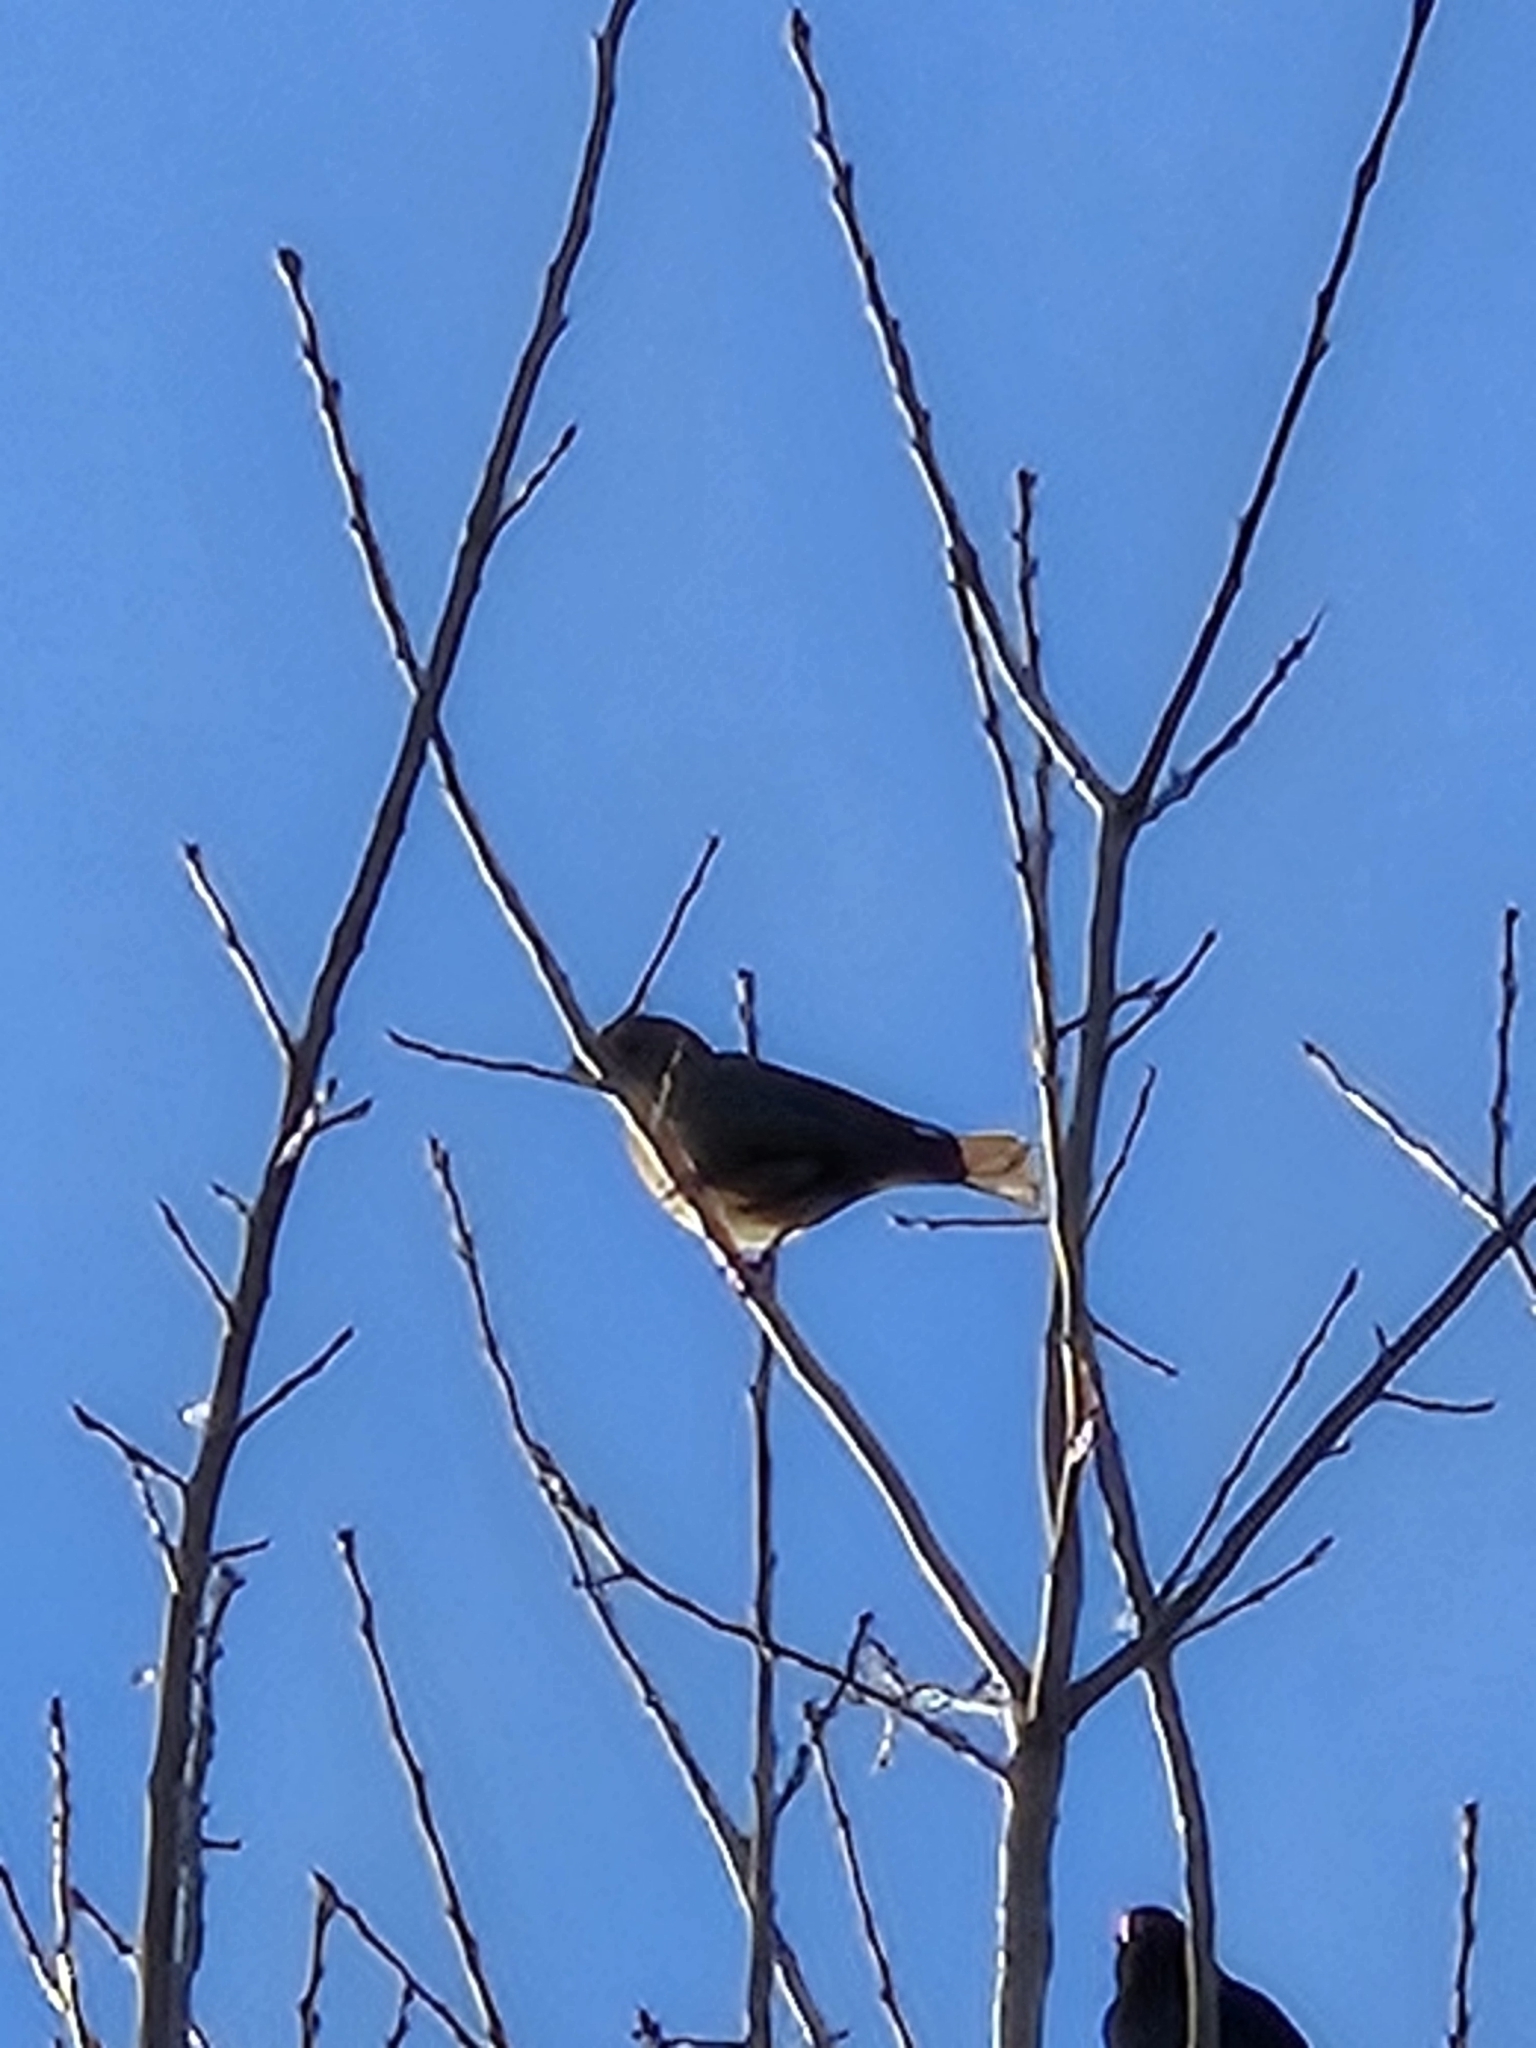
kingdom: Animalia
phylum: Chordata
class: Aves
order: Passeriformes
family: Icteridae
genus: Agelaius
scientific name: Agelaius phoeniceus
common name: Red-winged blackbird
